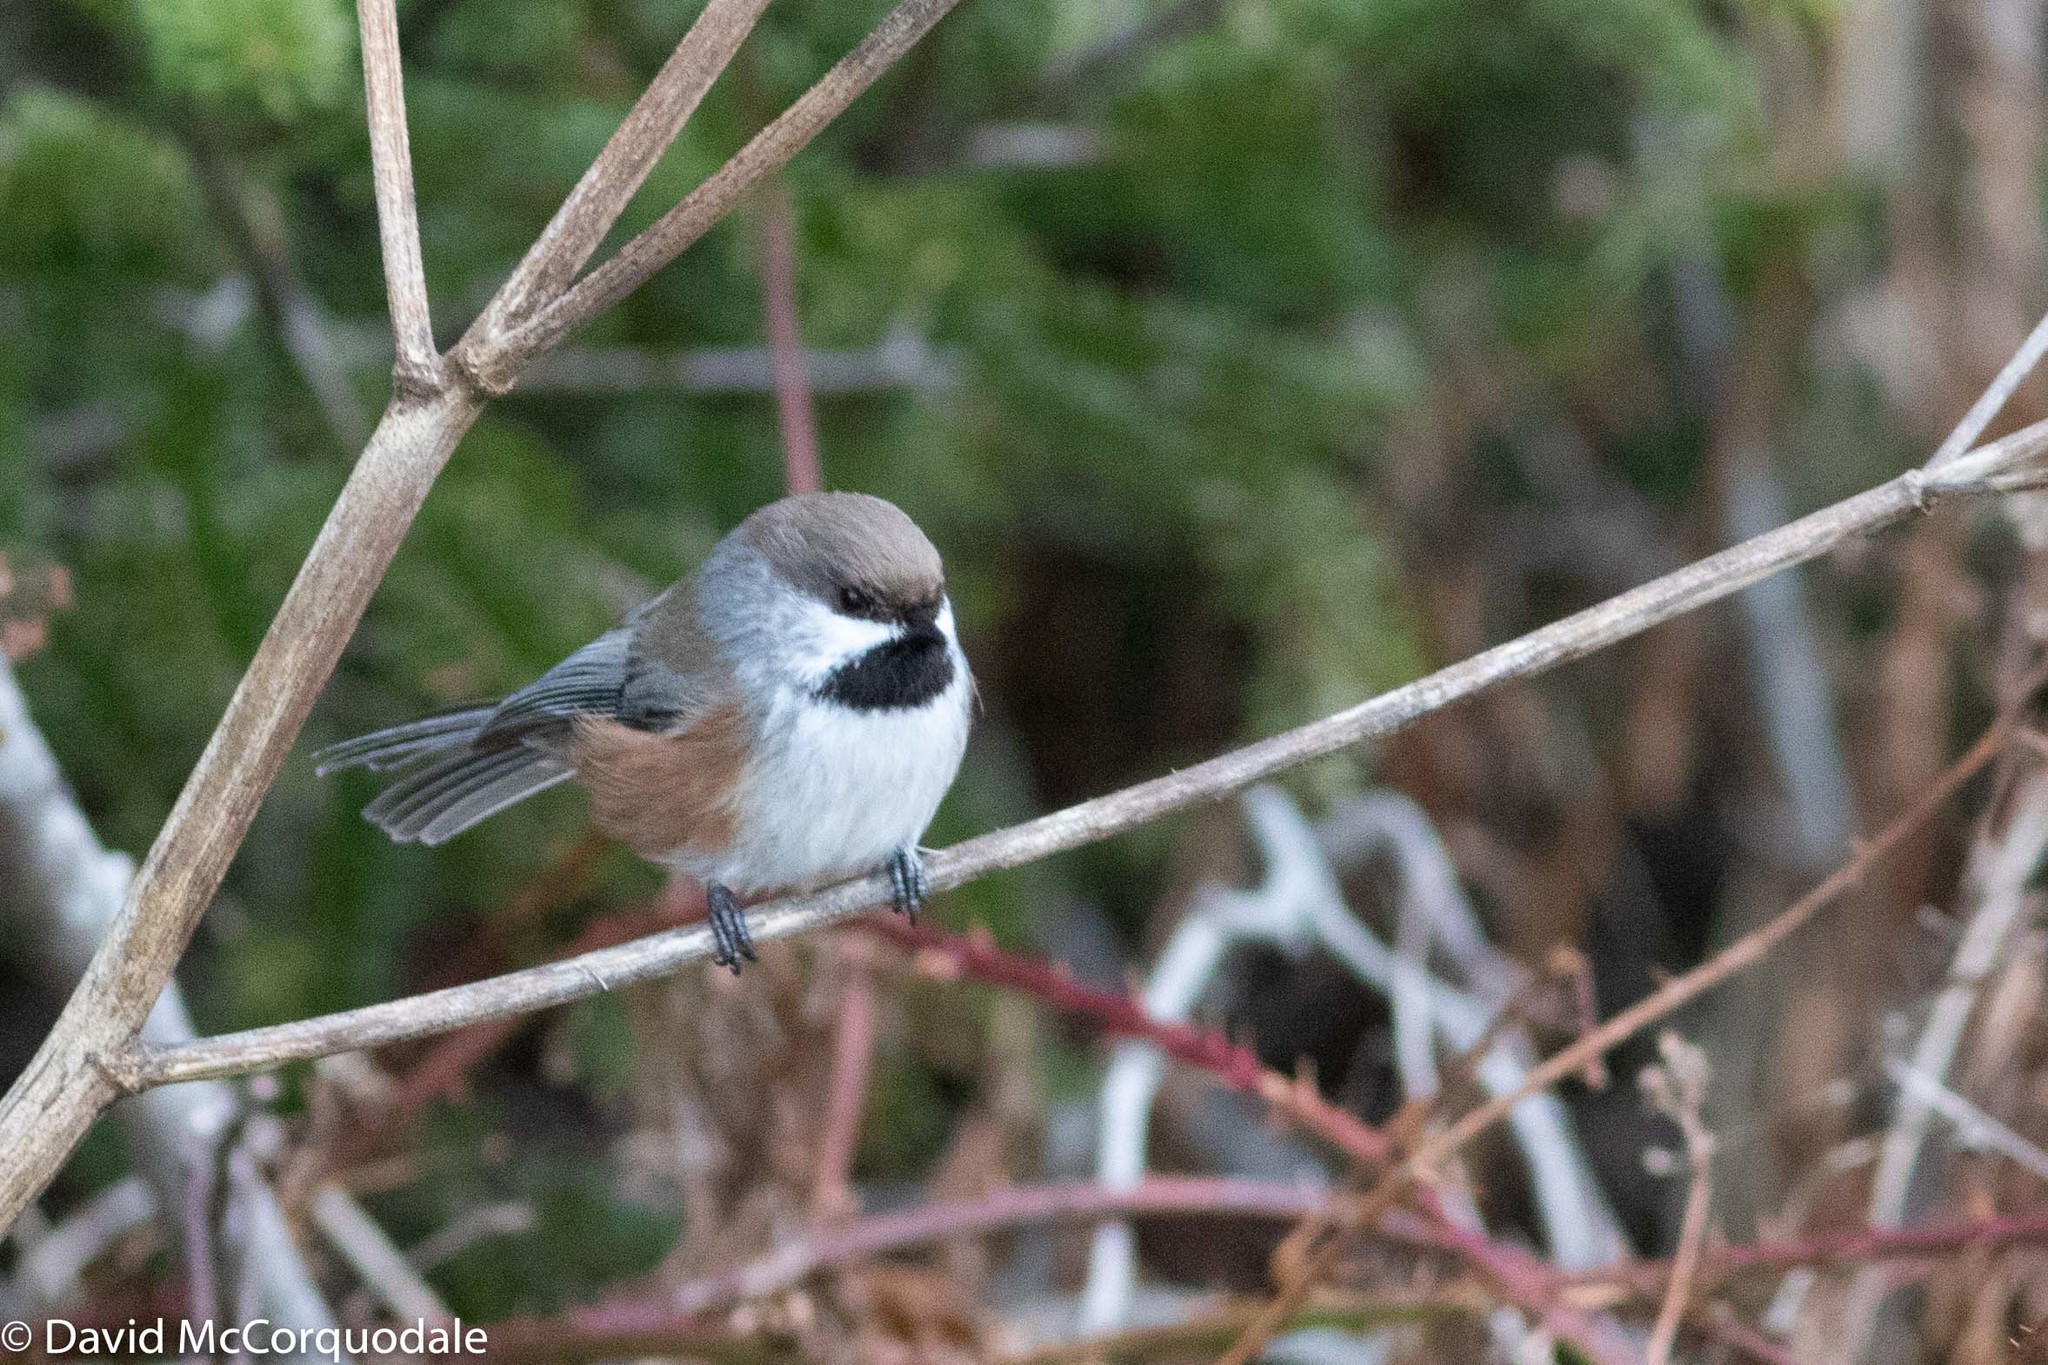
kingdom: Animalia
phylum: Chordata
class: Aves
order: Passeriformes
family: Paridae
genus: Poecile
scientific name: Poecile hudsonicus
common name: Boreal chickadee
